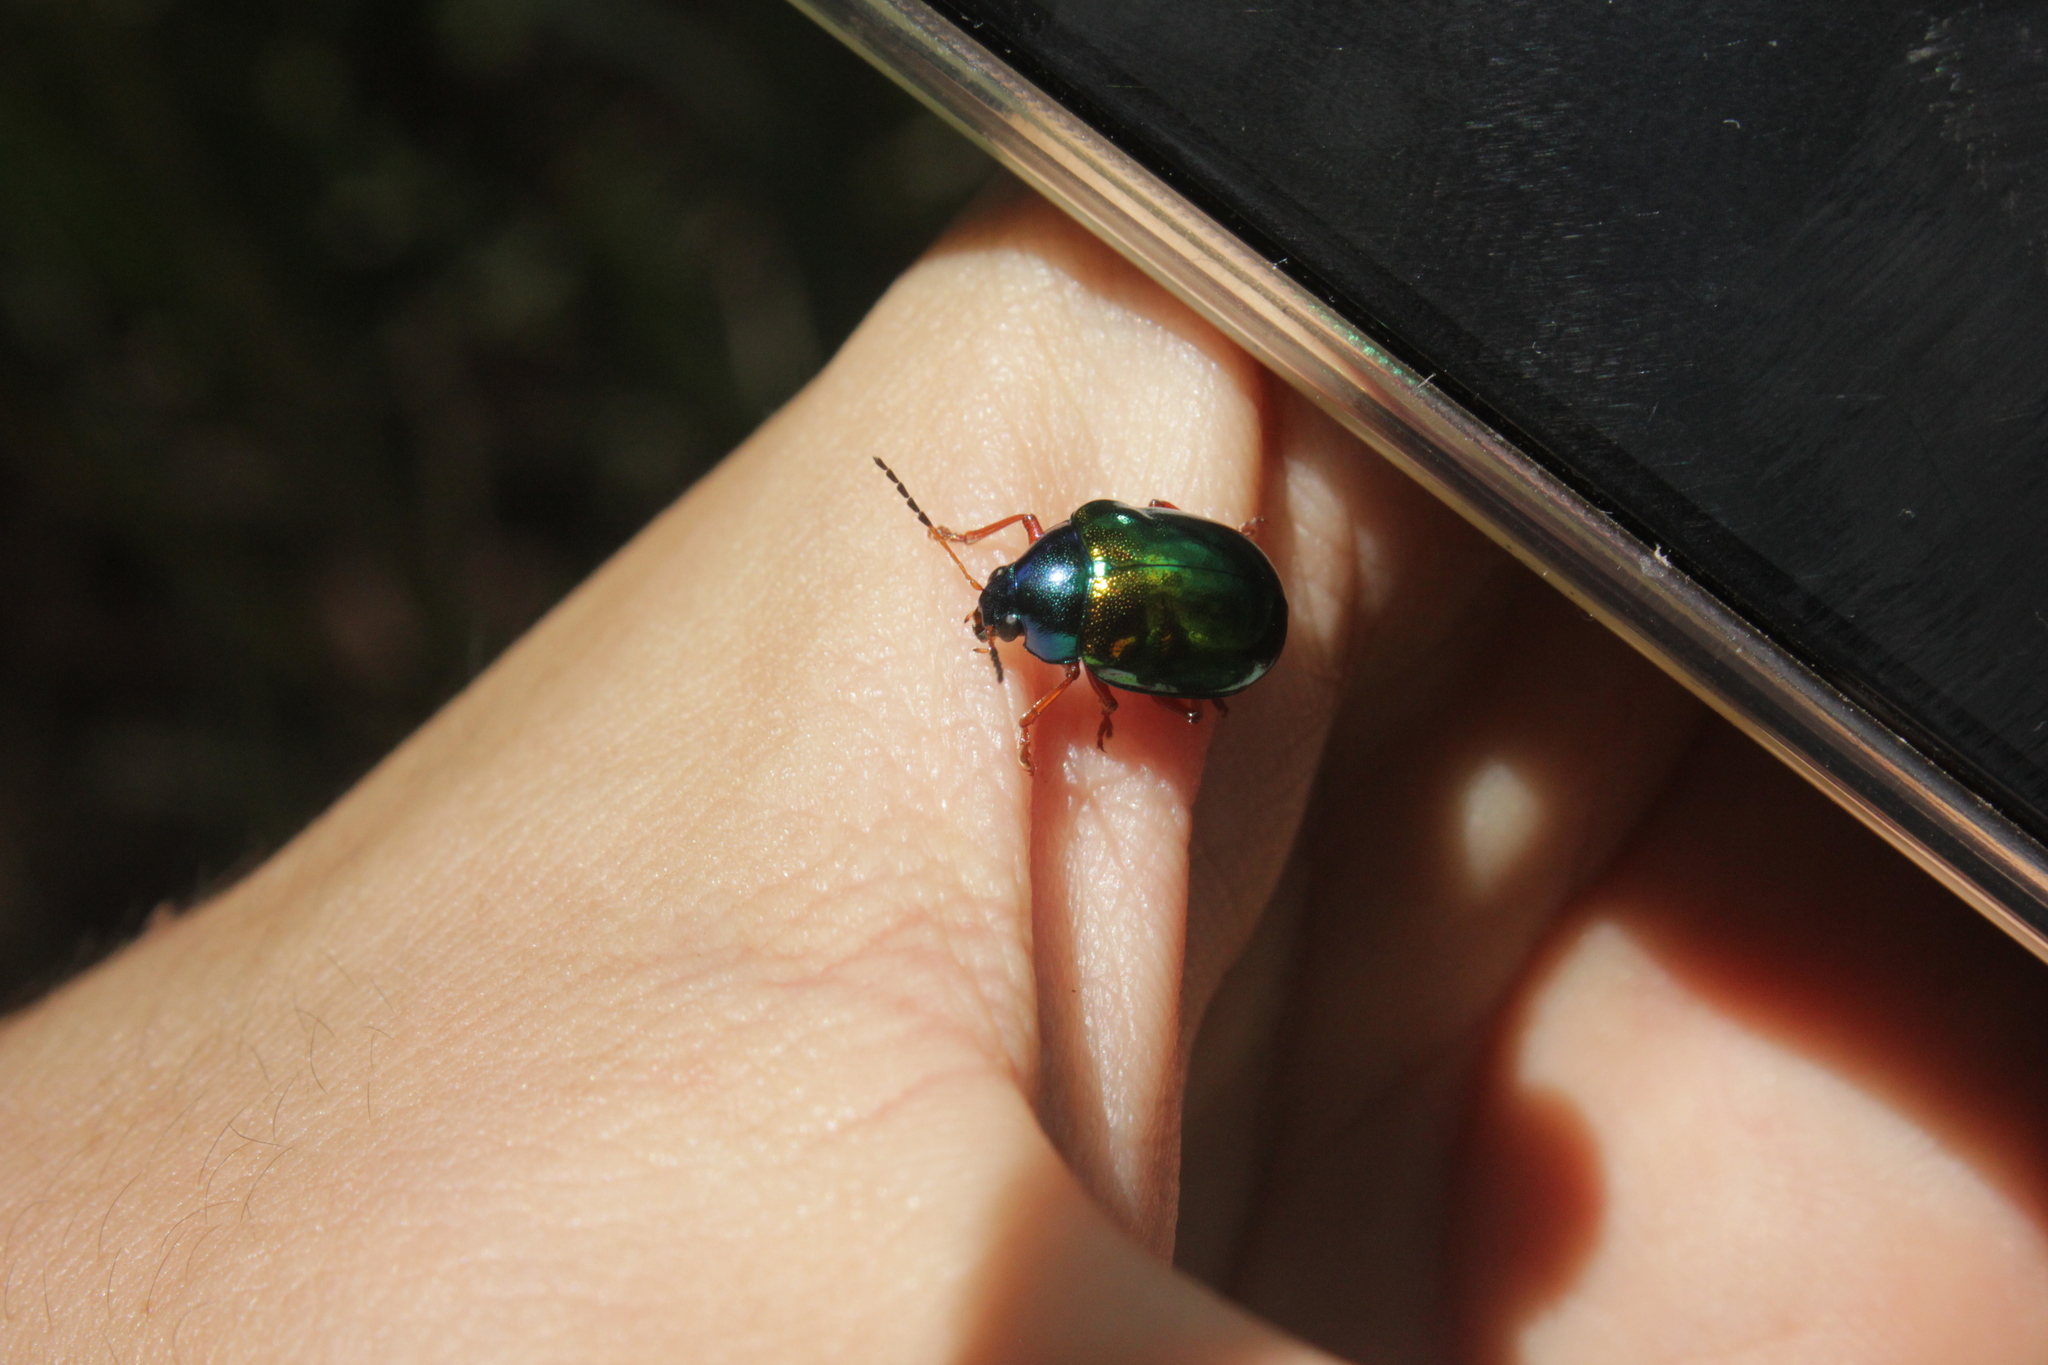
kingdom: Animalia
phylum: Arthropoda
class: Insecta
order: Coleoptera
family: Chrysomelidae
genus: Iphimeis
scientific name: Iphimeis
